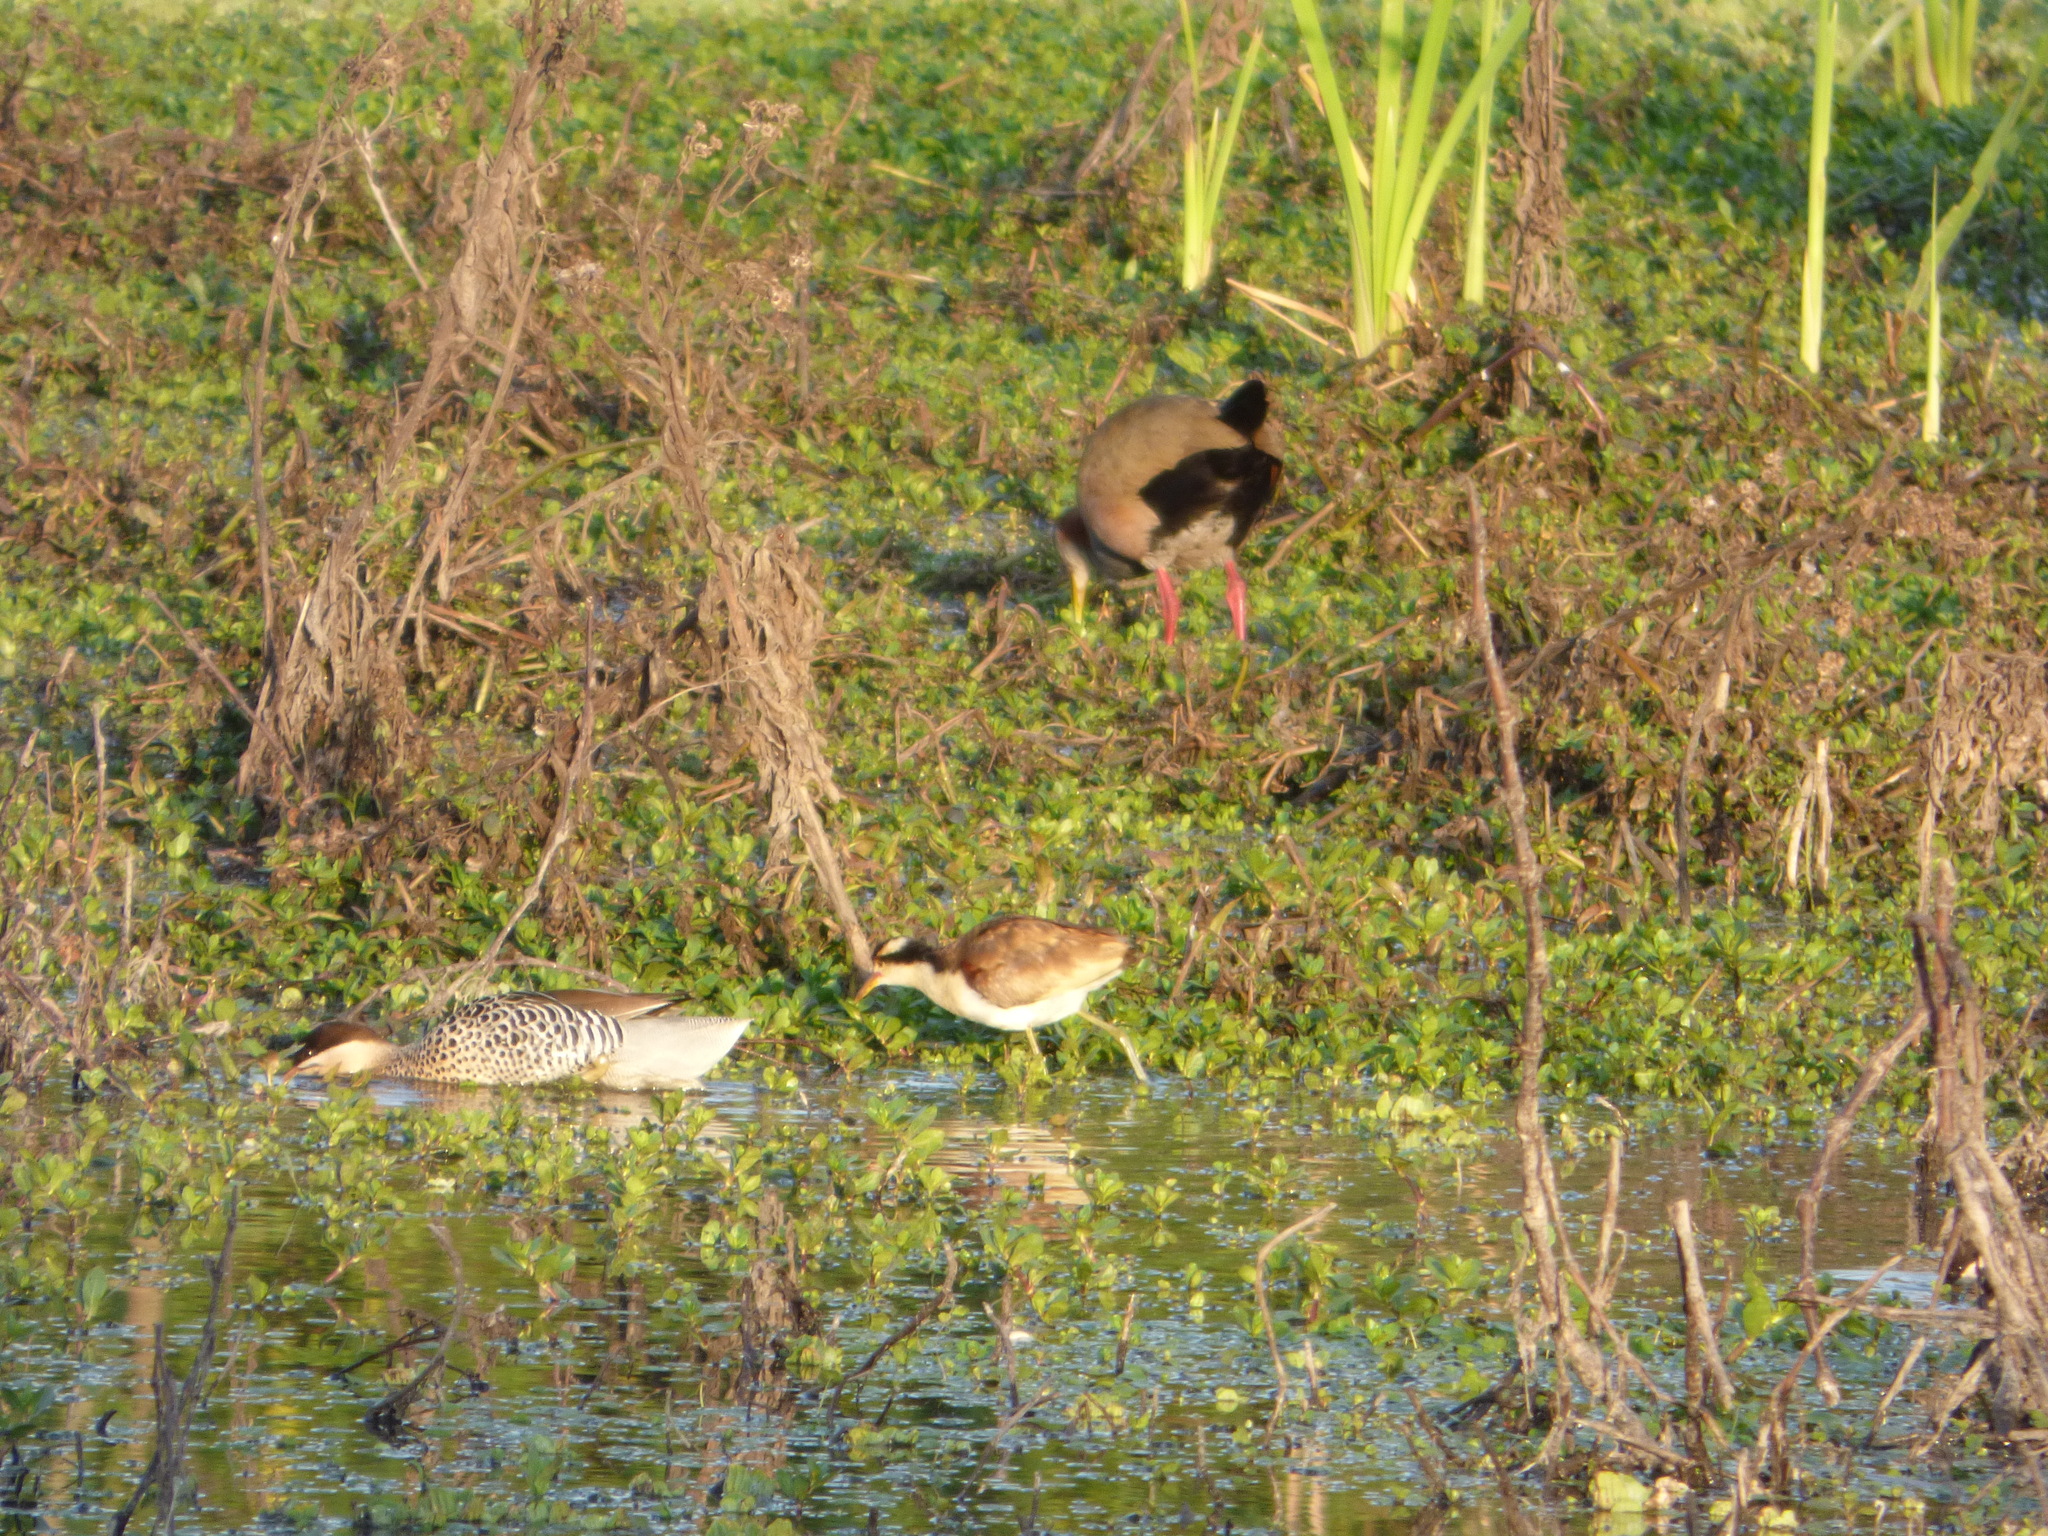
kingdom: Animalia
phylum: Chordata
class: Aves
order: Charadriiformes
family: Jacanidae
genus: Jacana
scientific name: Jacana jacana
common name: Wattled jacana
